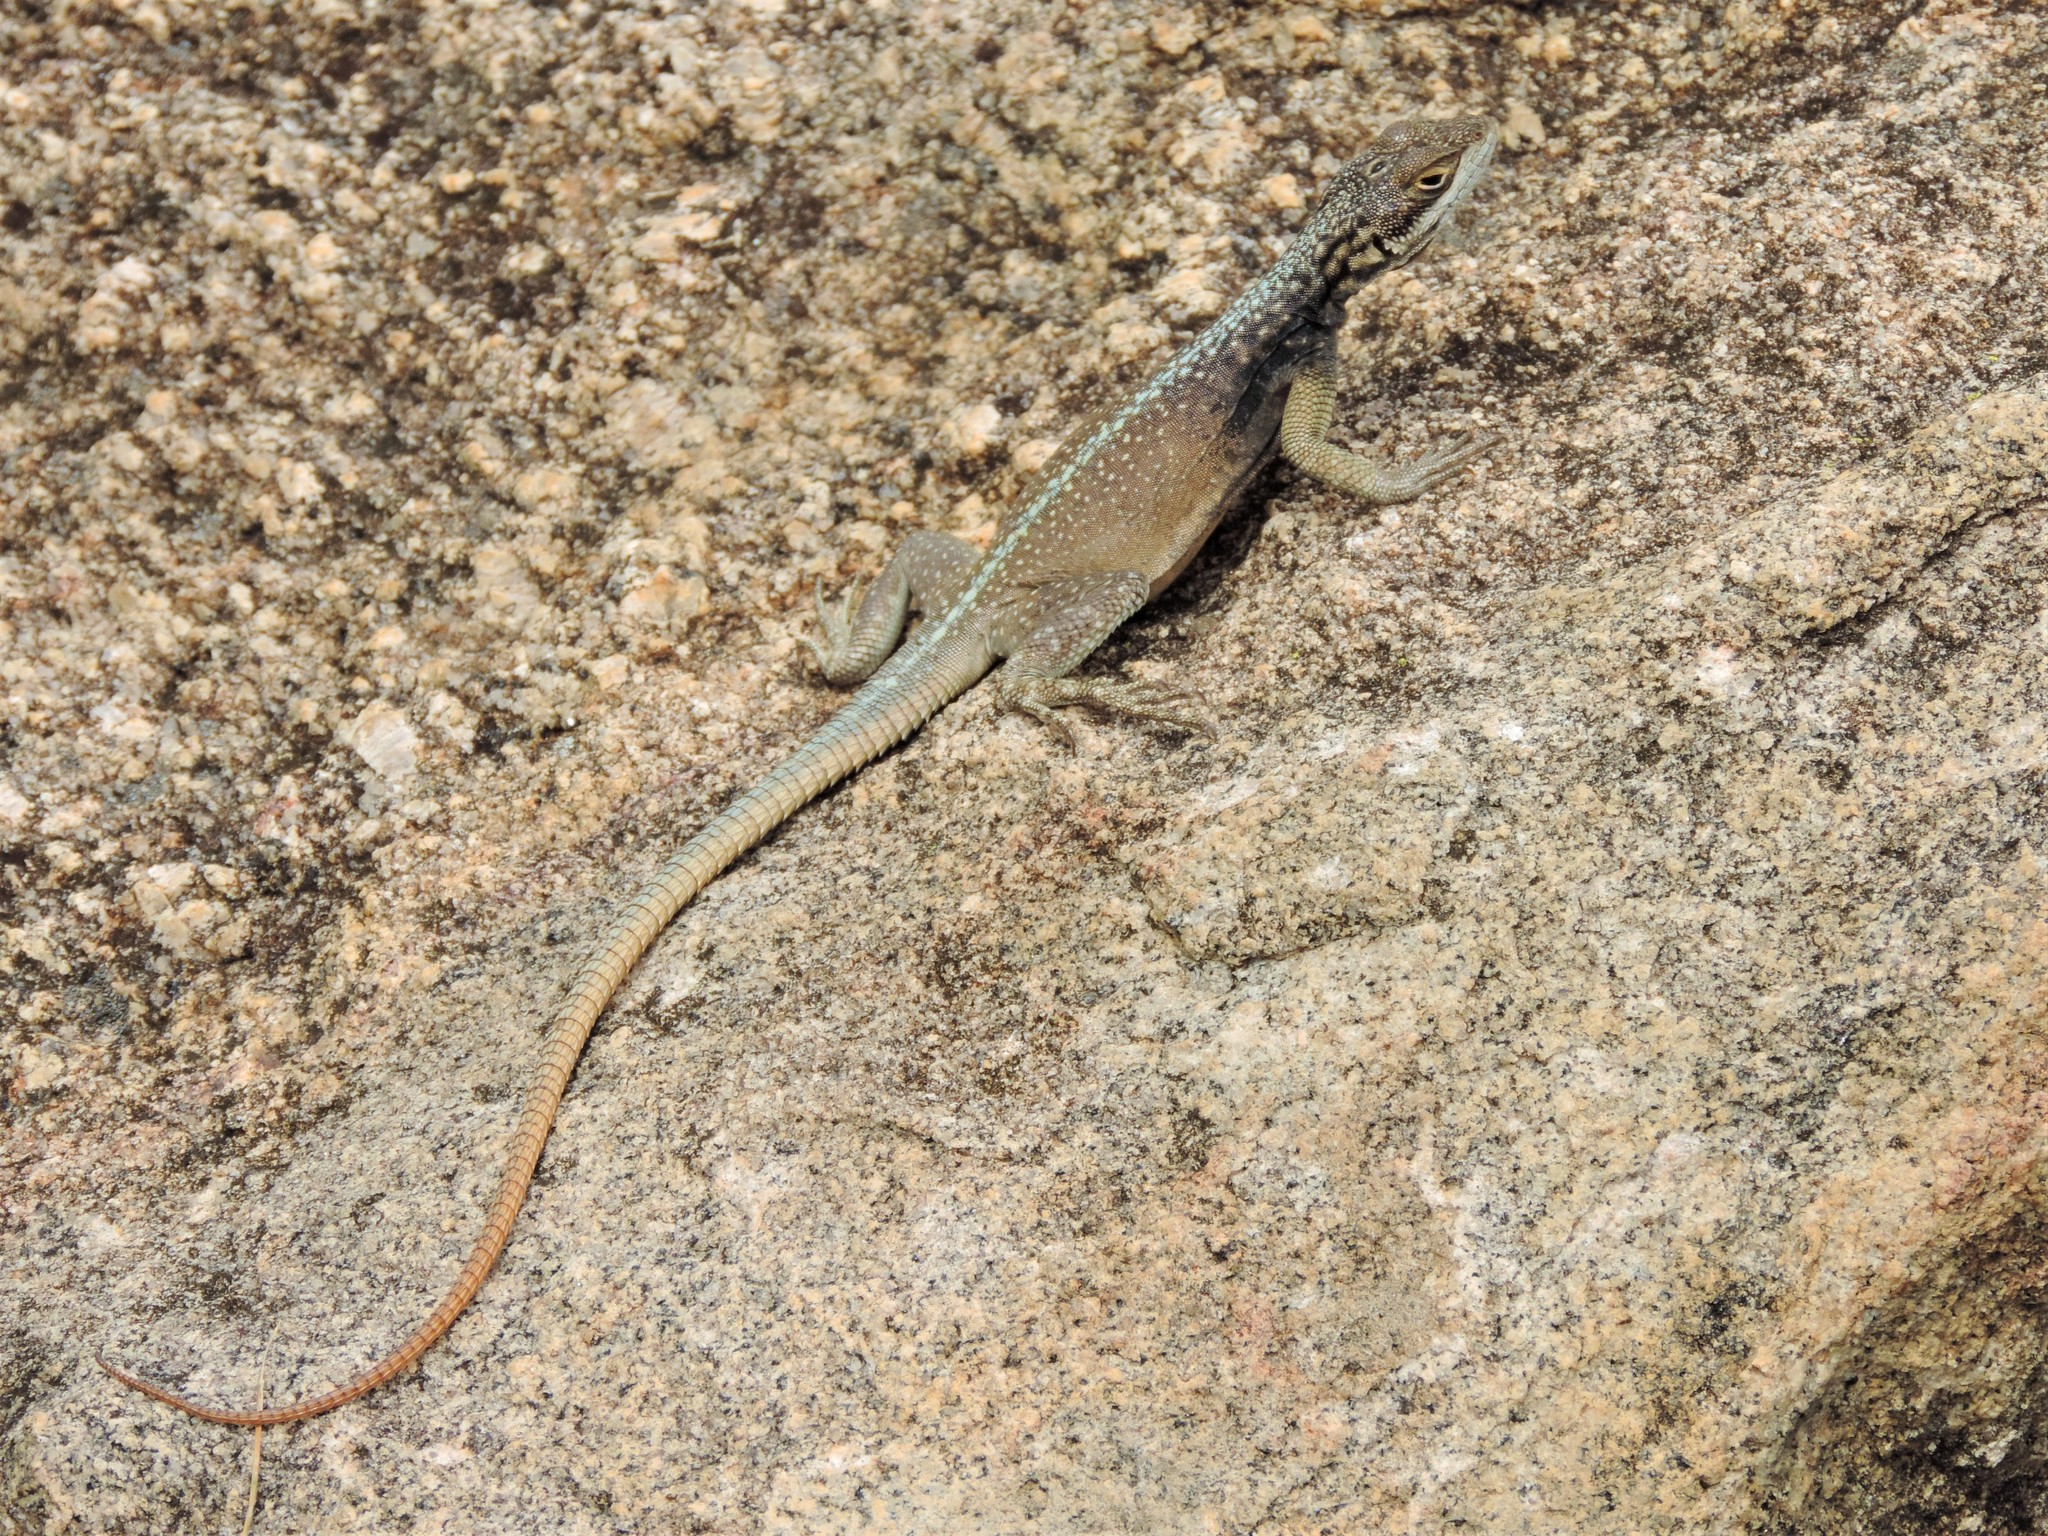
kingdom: Animalia
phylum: Chordata
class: Squamata
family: Opluridae
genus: Oplurus
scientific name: Oplurus grandidieri
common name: Grandidier's madagascar swift
